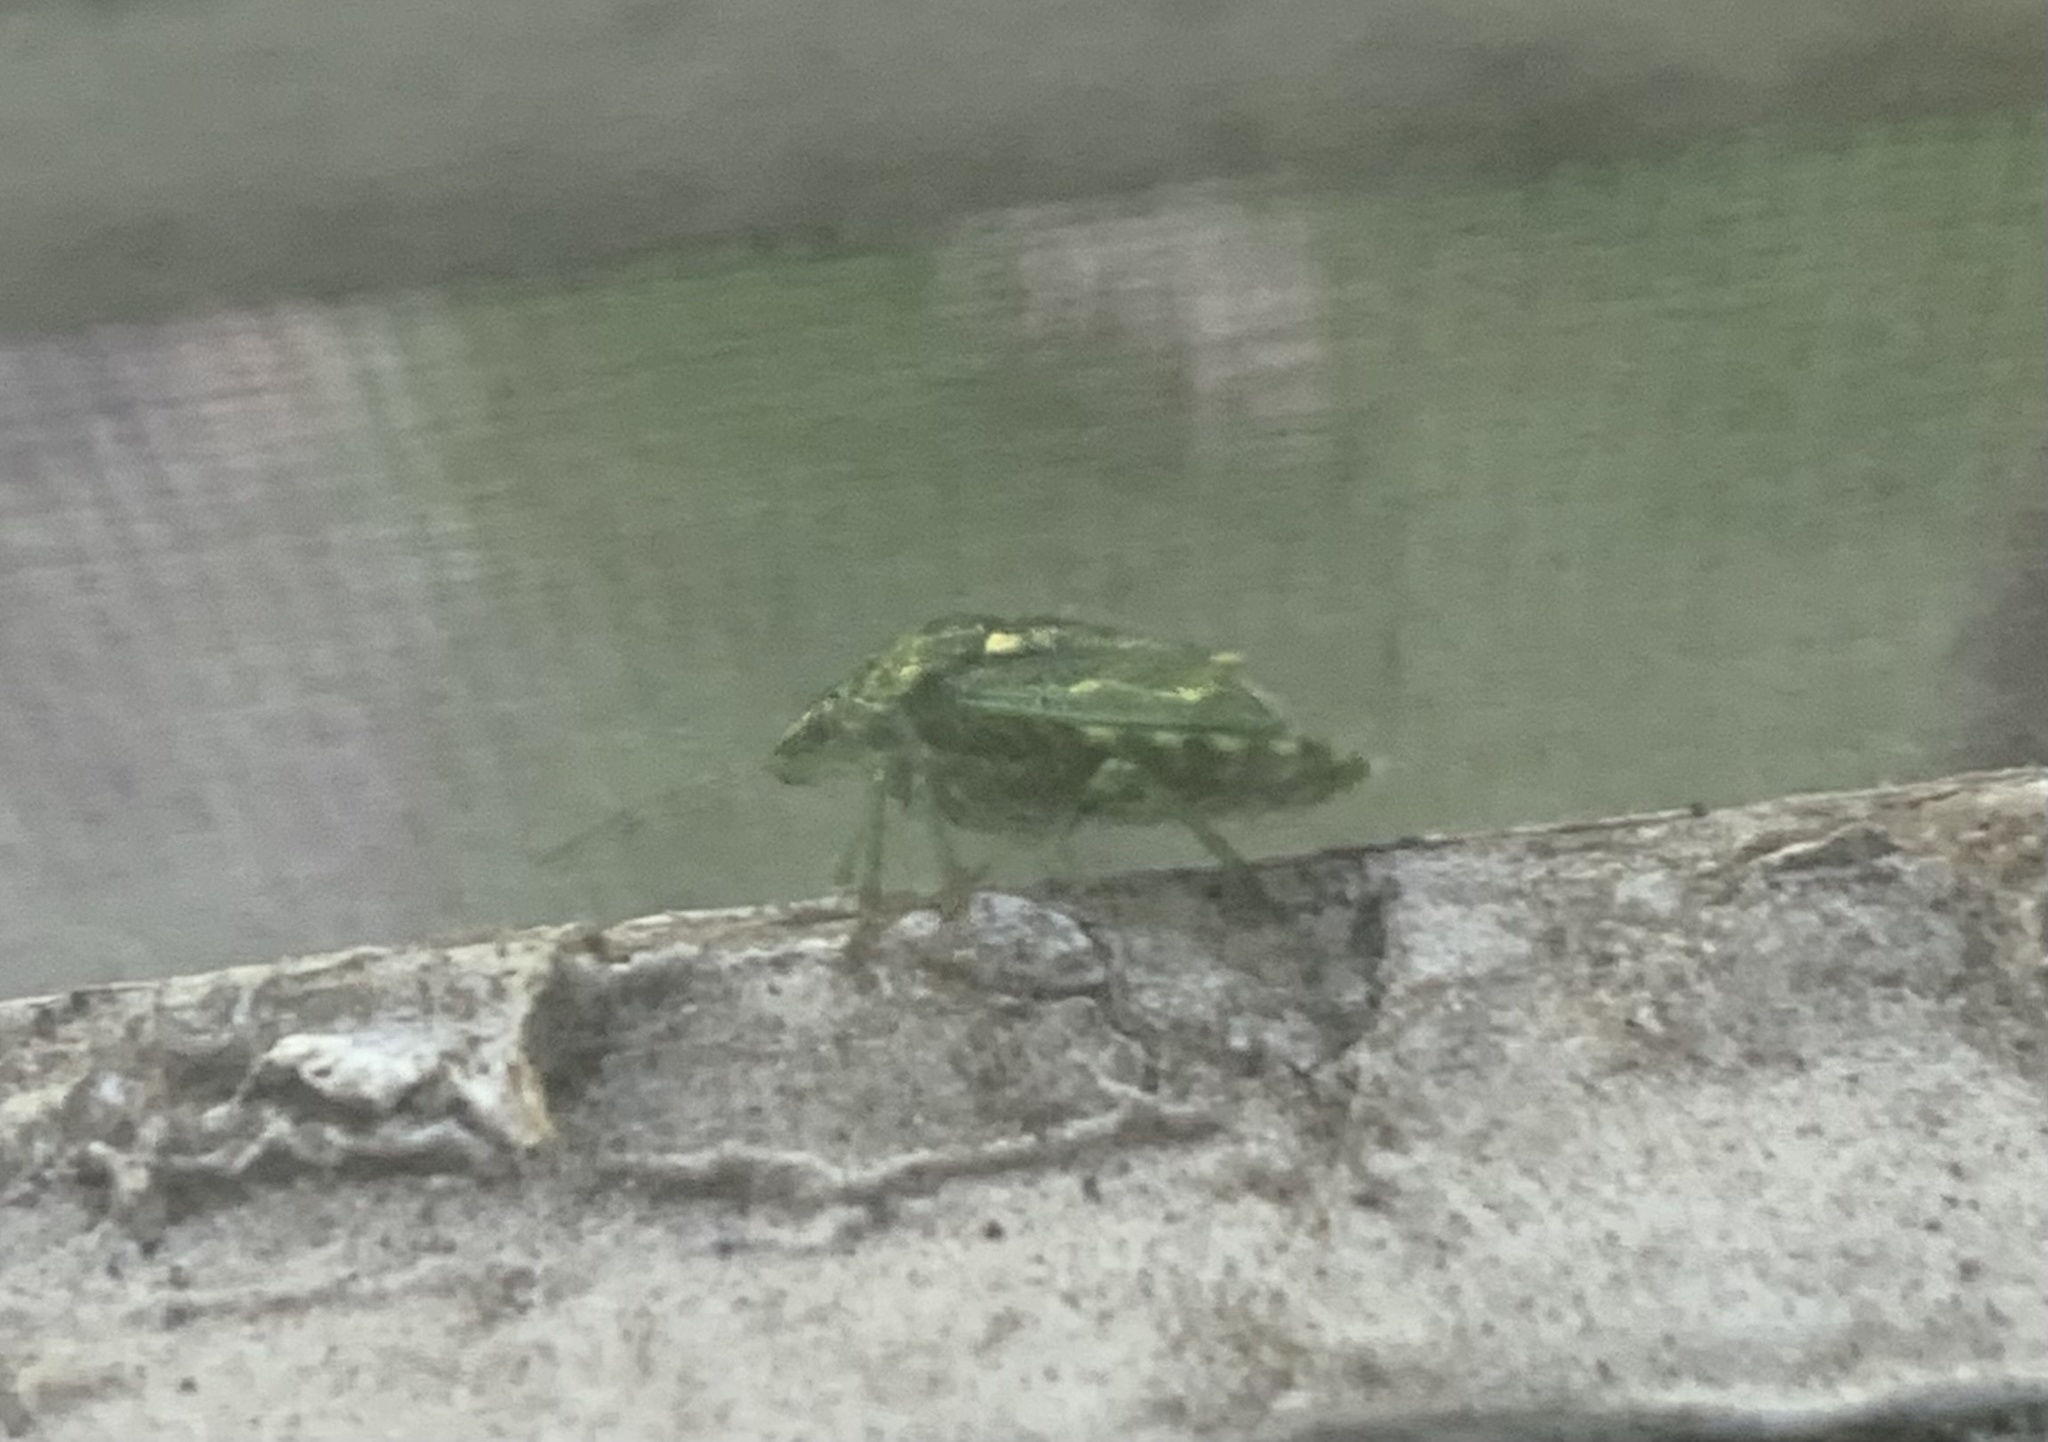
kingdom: Animalia
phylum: Arthropoda
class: Insecta
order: Hemiptera
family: Pentatomidae
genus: Banasa
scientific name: Banasa euchlora
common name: Cedar berry bug
